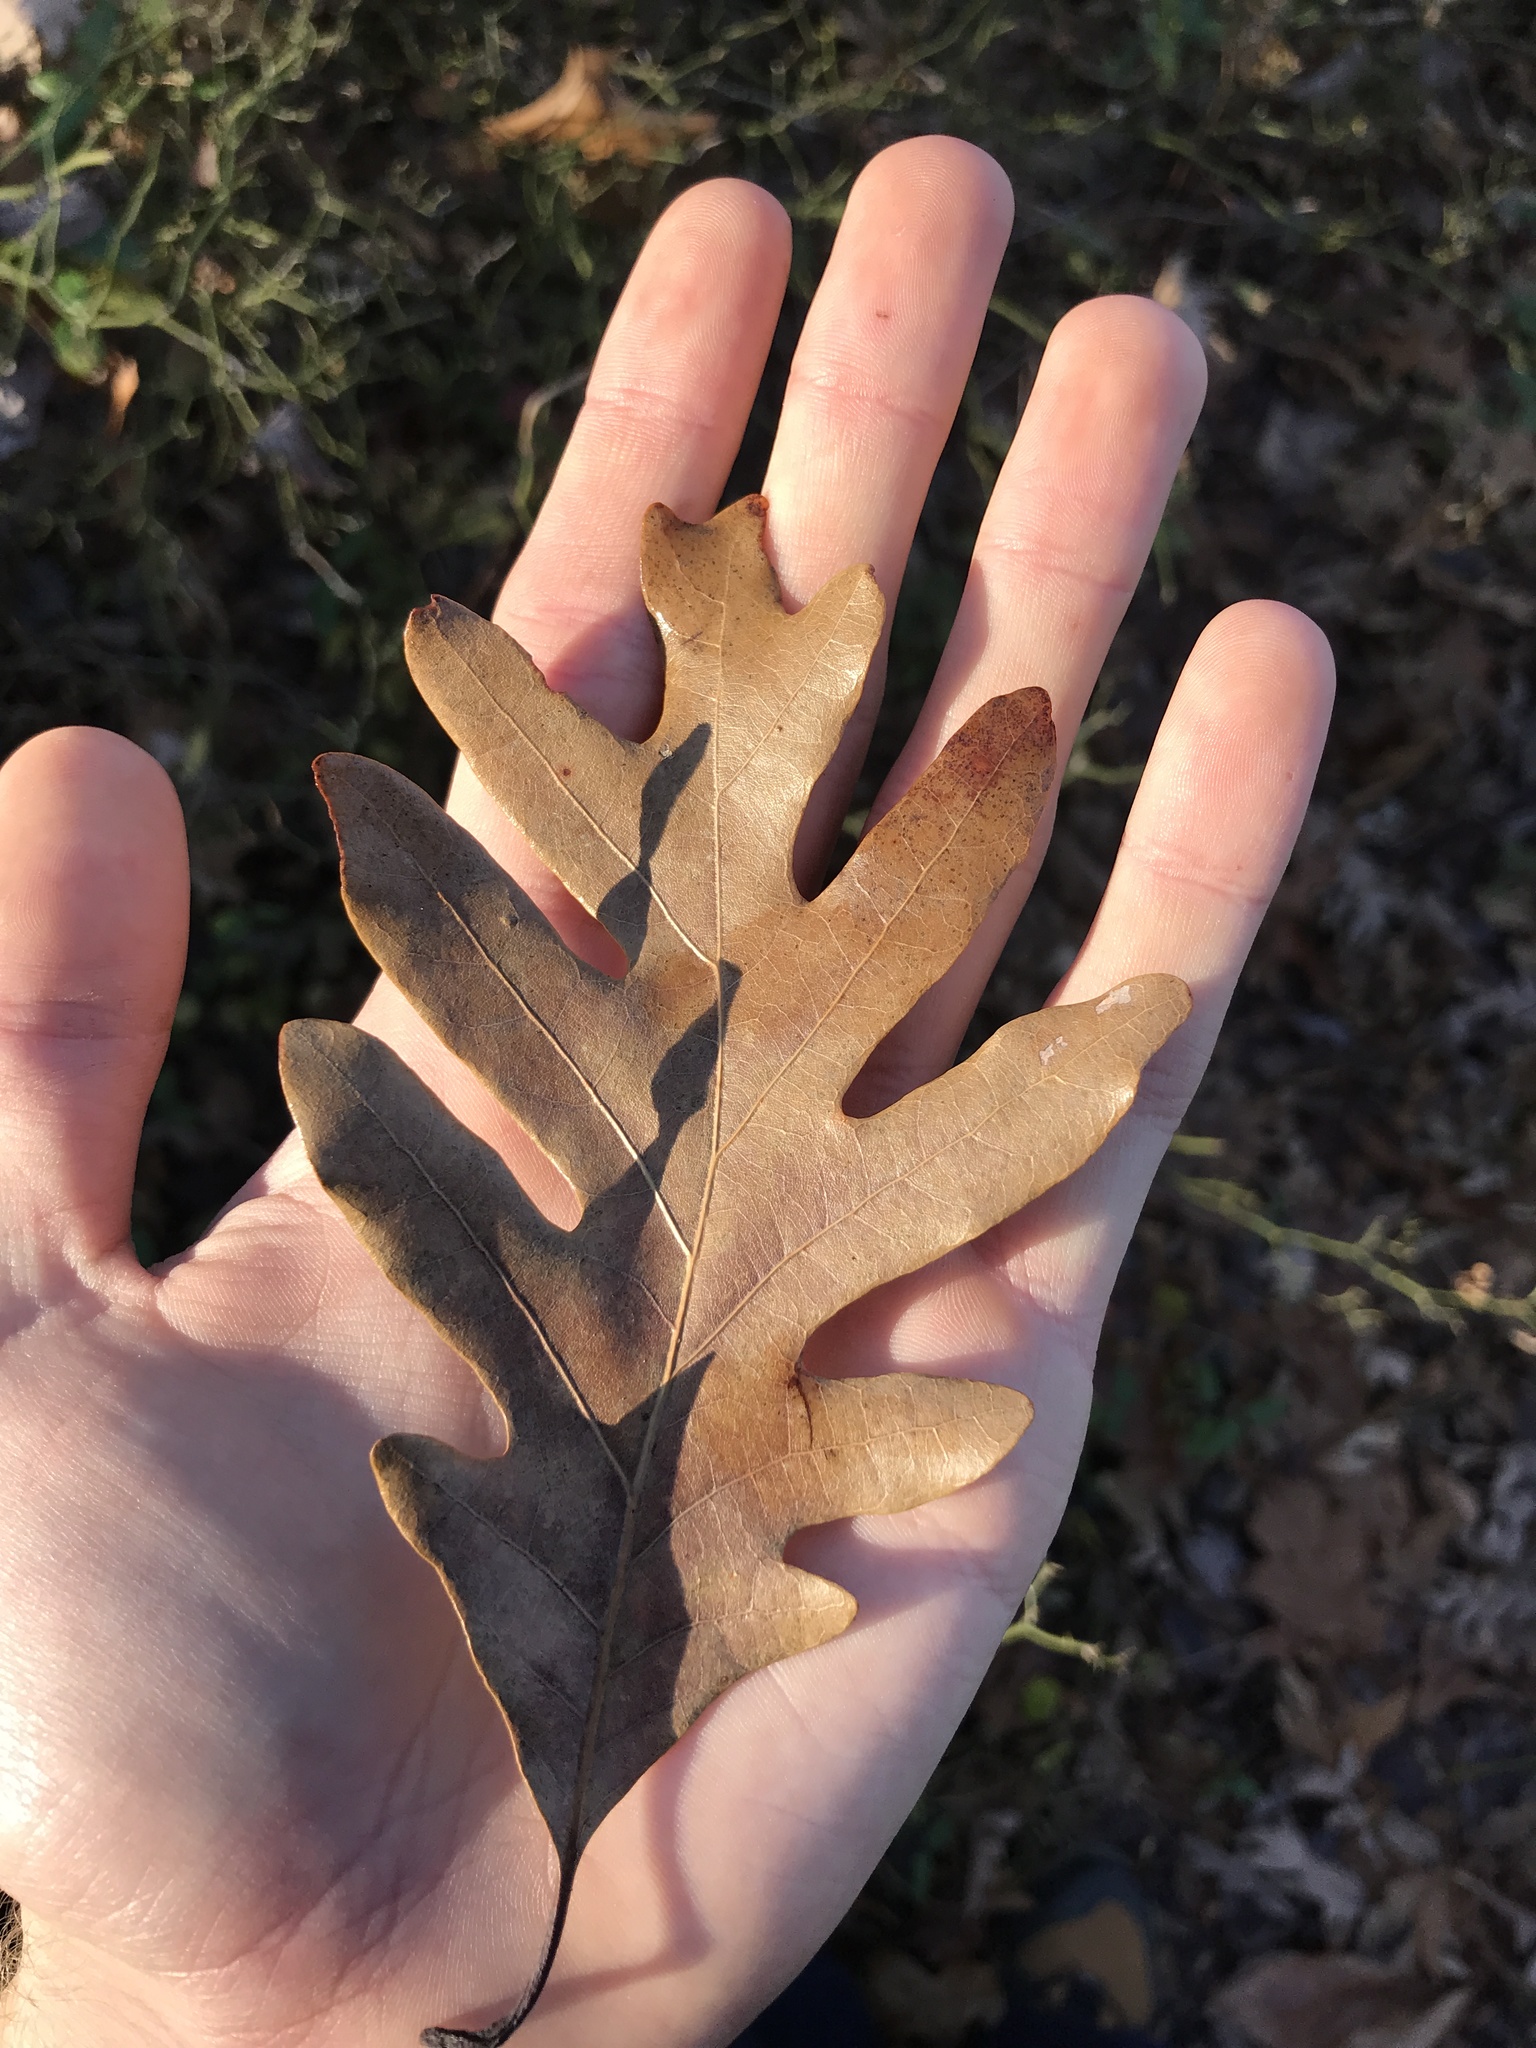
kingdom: Plantae
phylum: Tracheophyta
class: Magnoliopsida
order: Fagales
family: Fagaceae
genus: Quercus
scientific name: Quercus alba
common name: White oak
